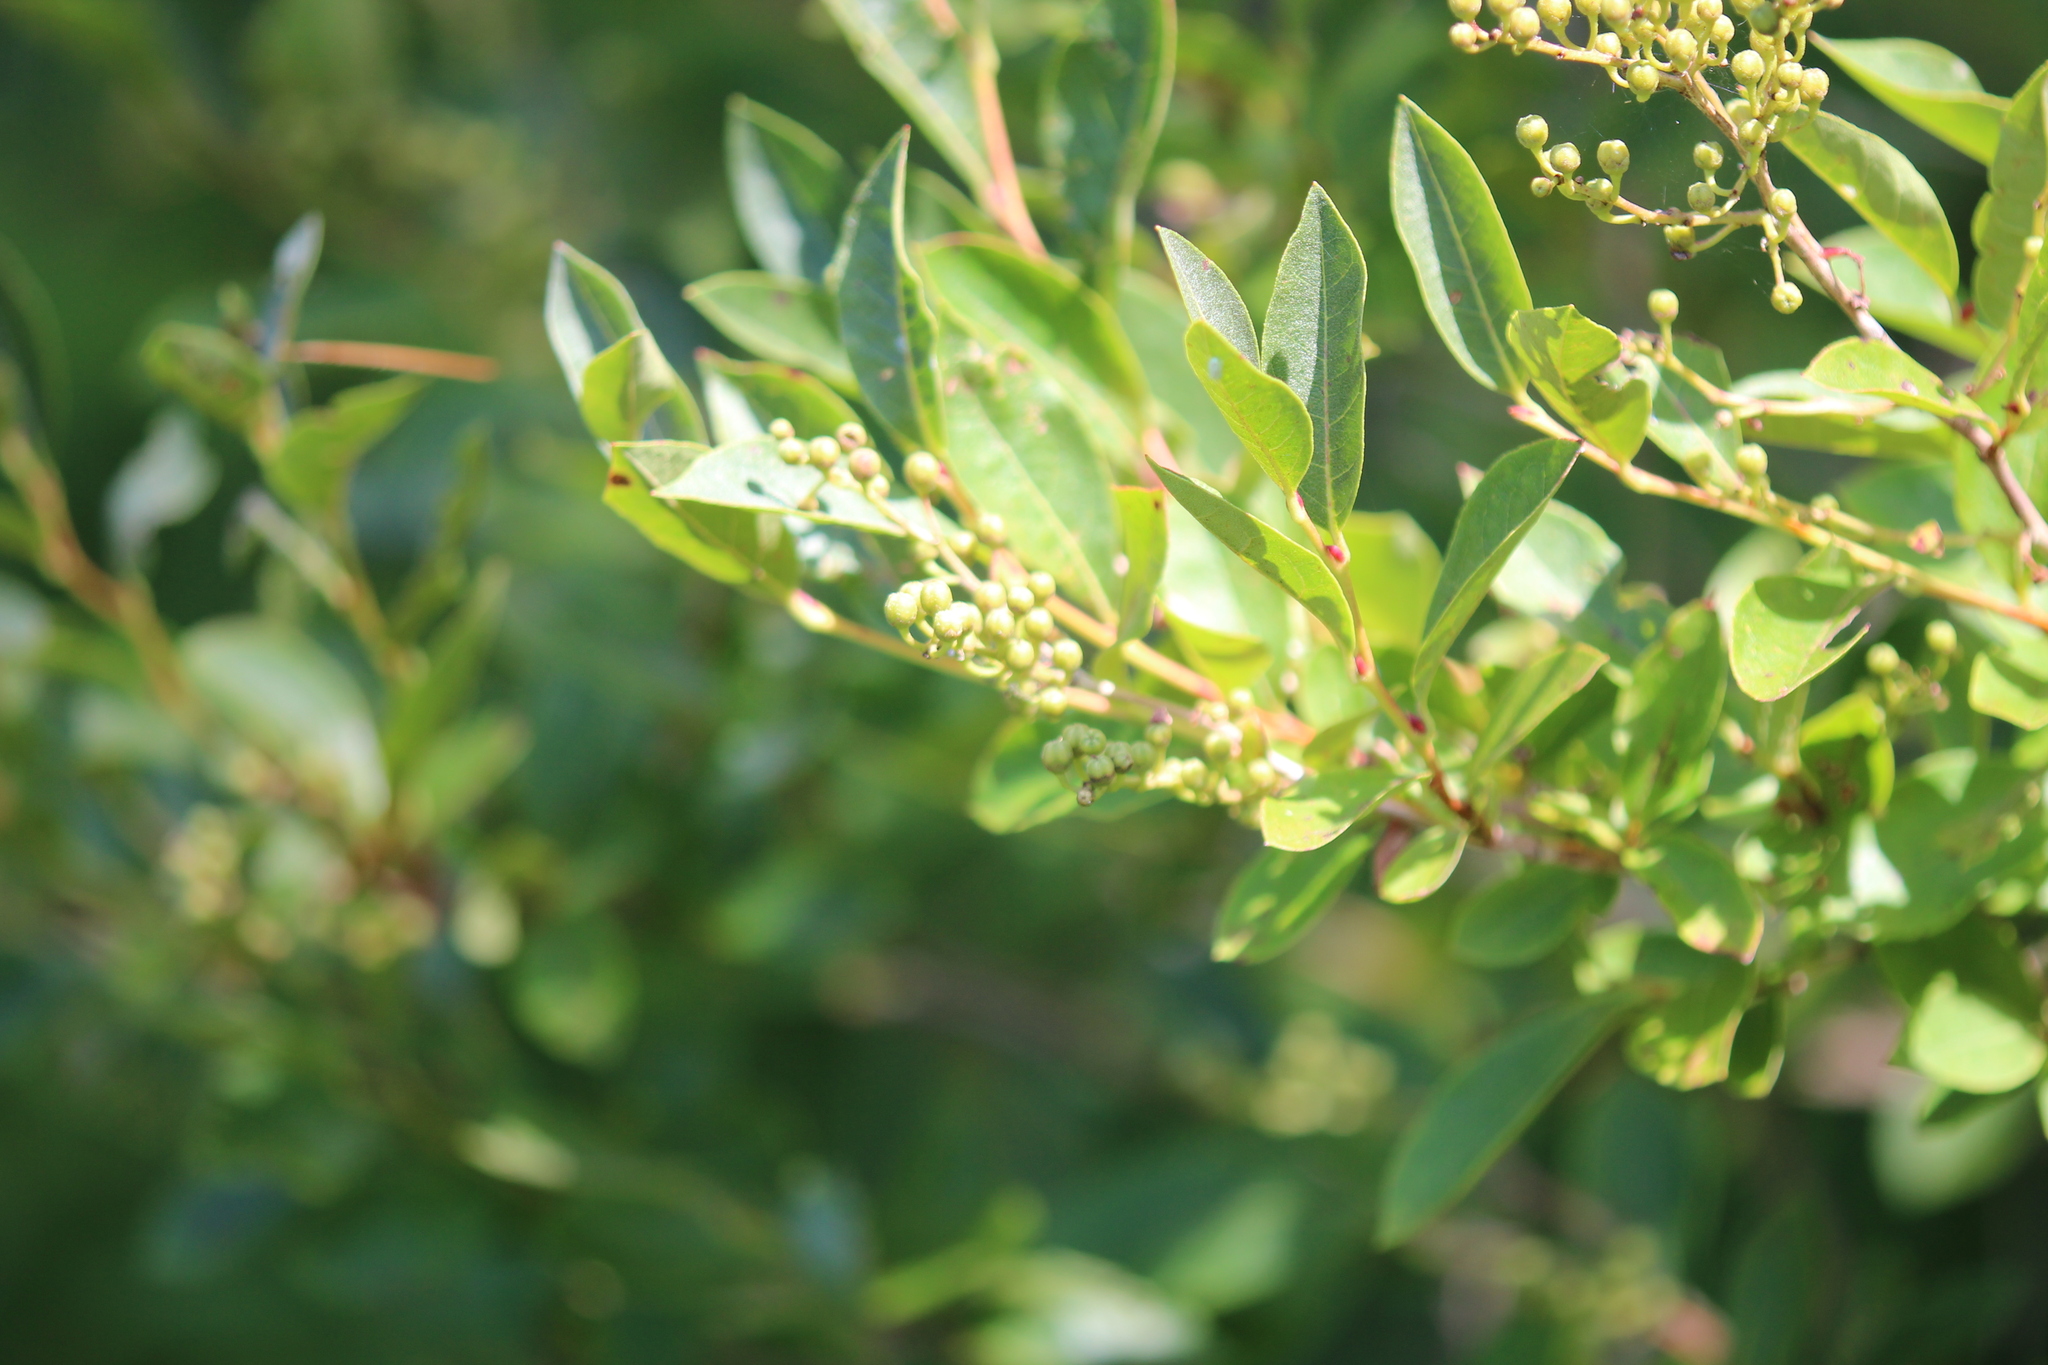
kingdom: Plantae
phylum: Tracheophyta
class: Magnoliopsida
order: Ericales
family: Ericaceae
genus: Lyonia
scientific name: Lyonia ligustrina
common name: Maleberry
